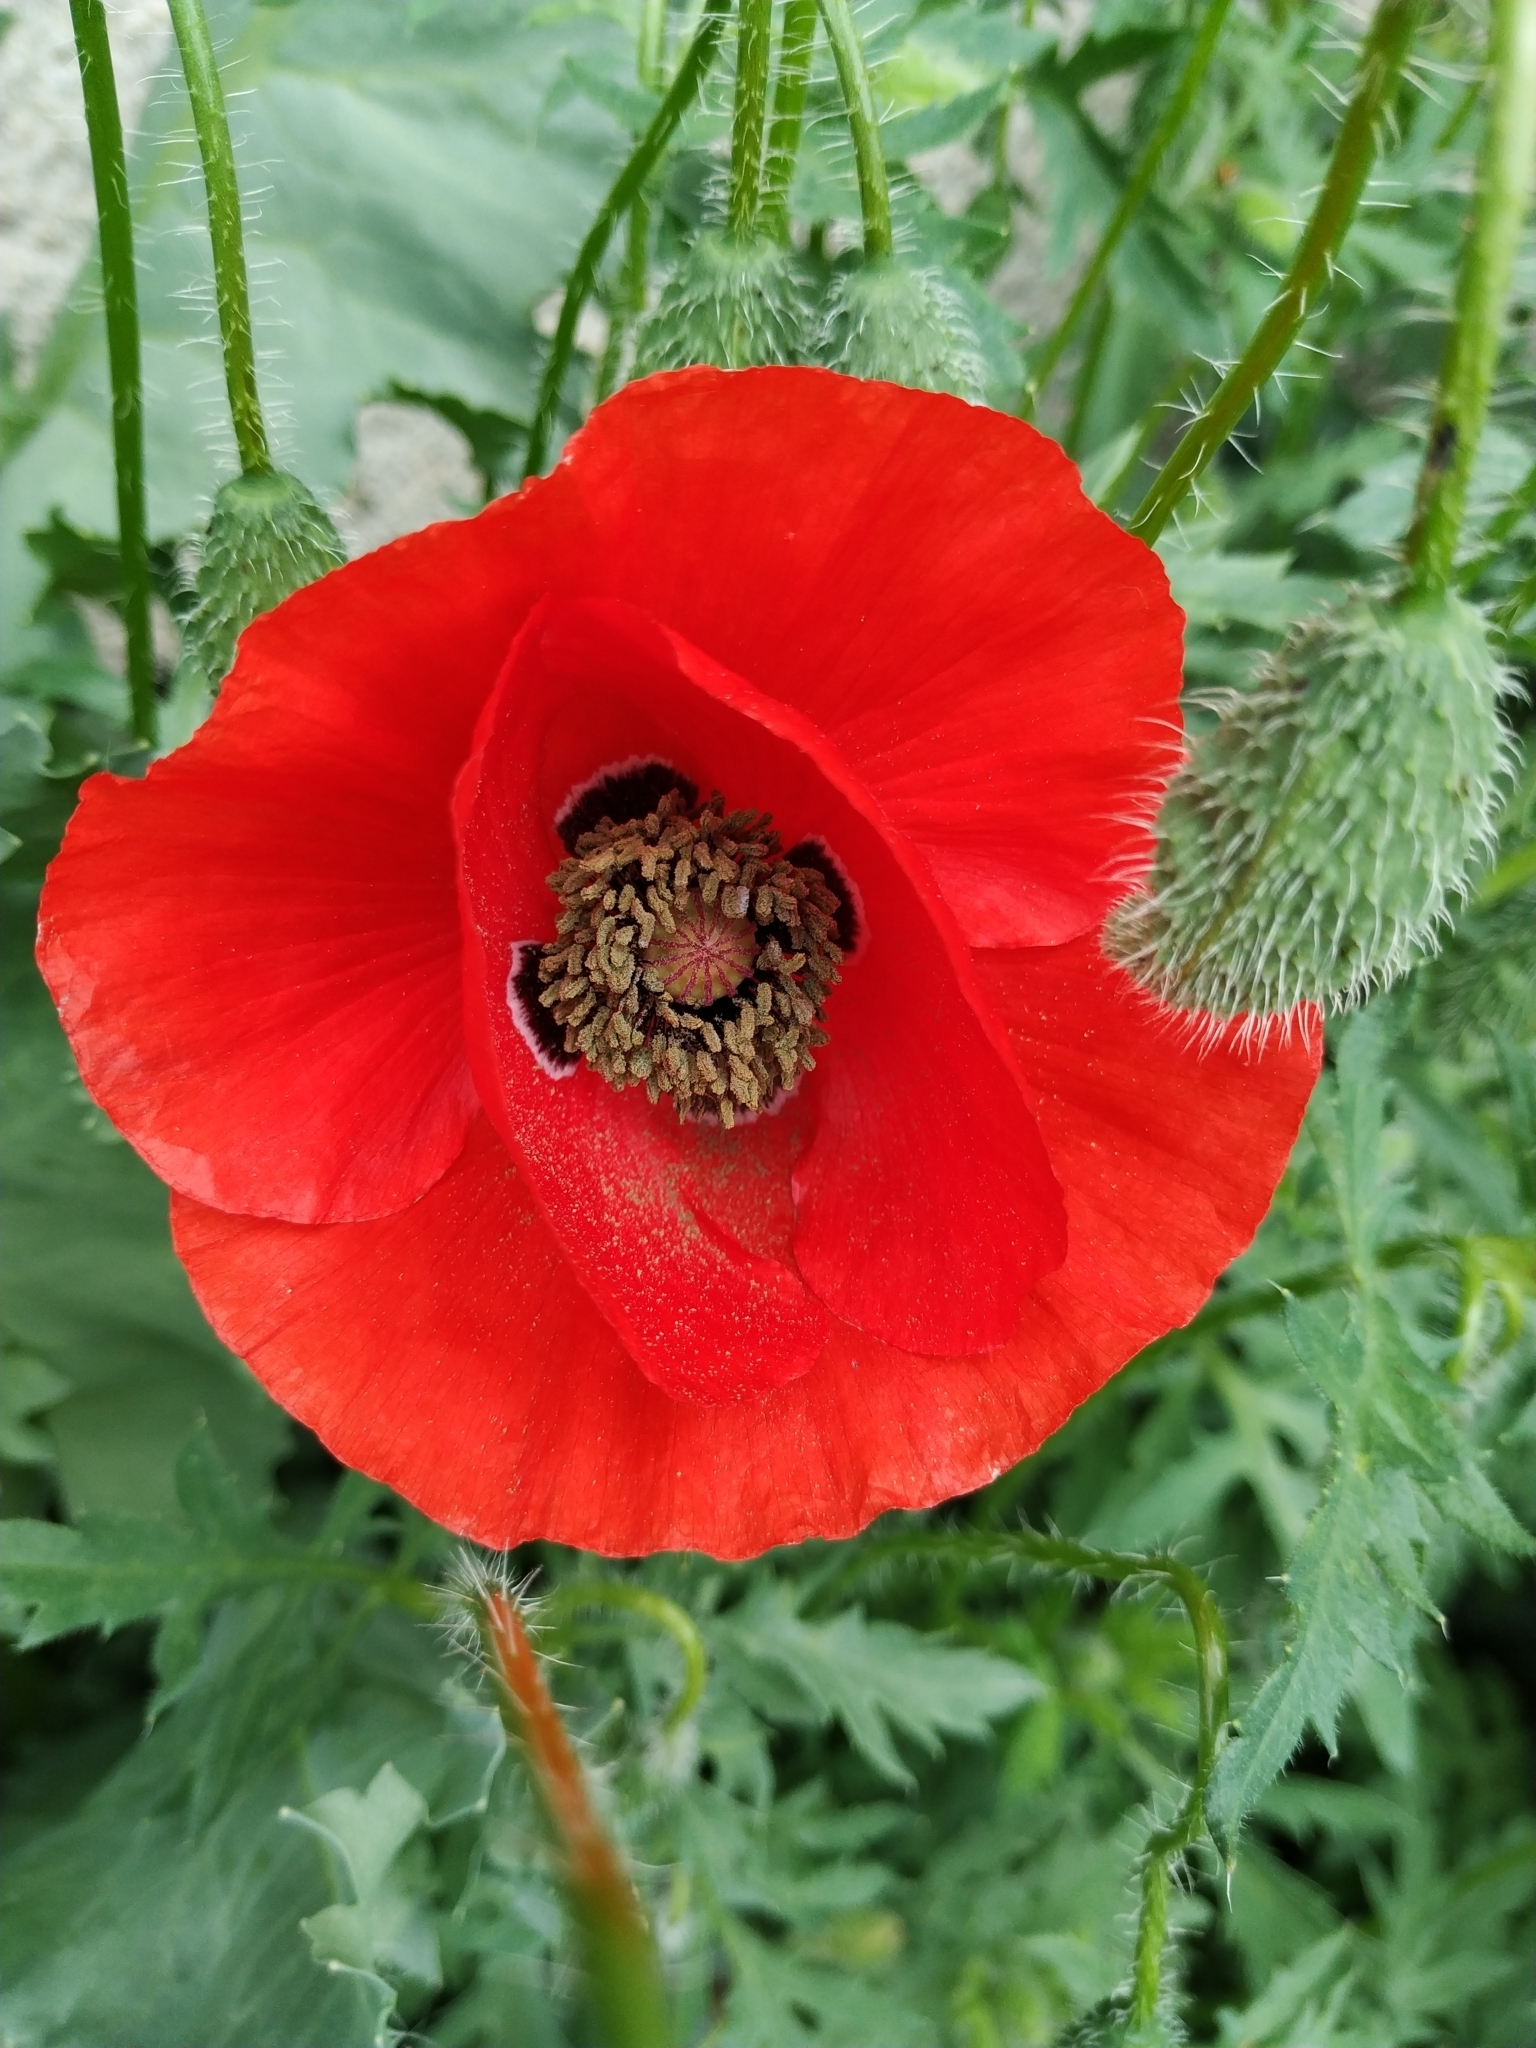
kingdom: Plantae
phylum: Tracheophyta
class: Magnoliopsida
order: Ranunculales
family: Papaveraceae
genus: Papaver
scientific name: Papaver rhoeas
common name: Corn poppy
